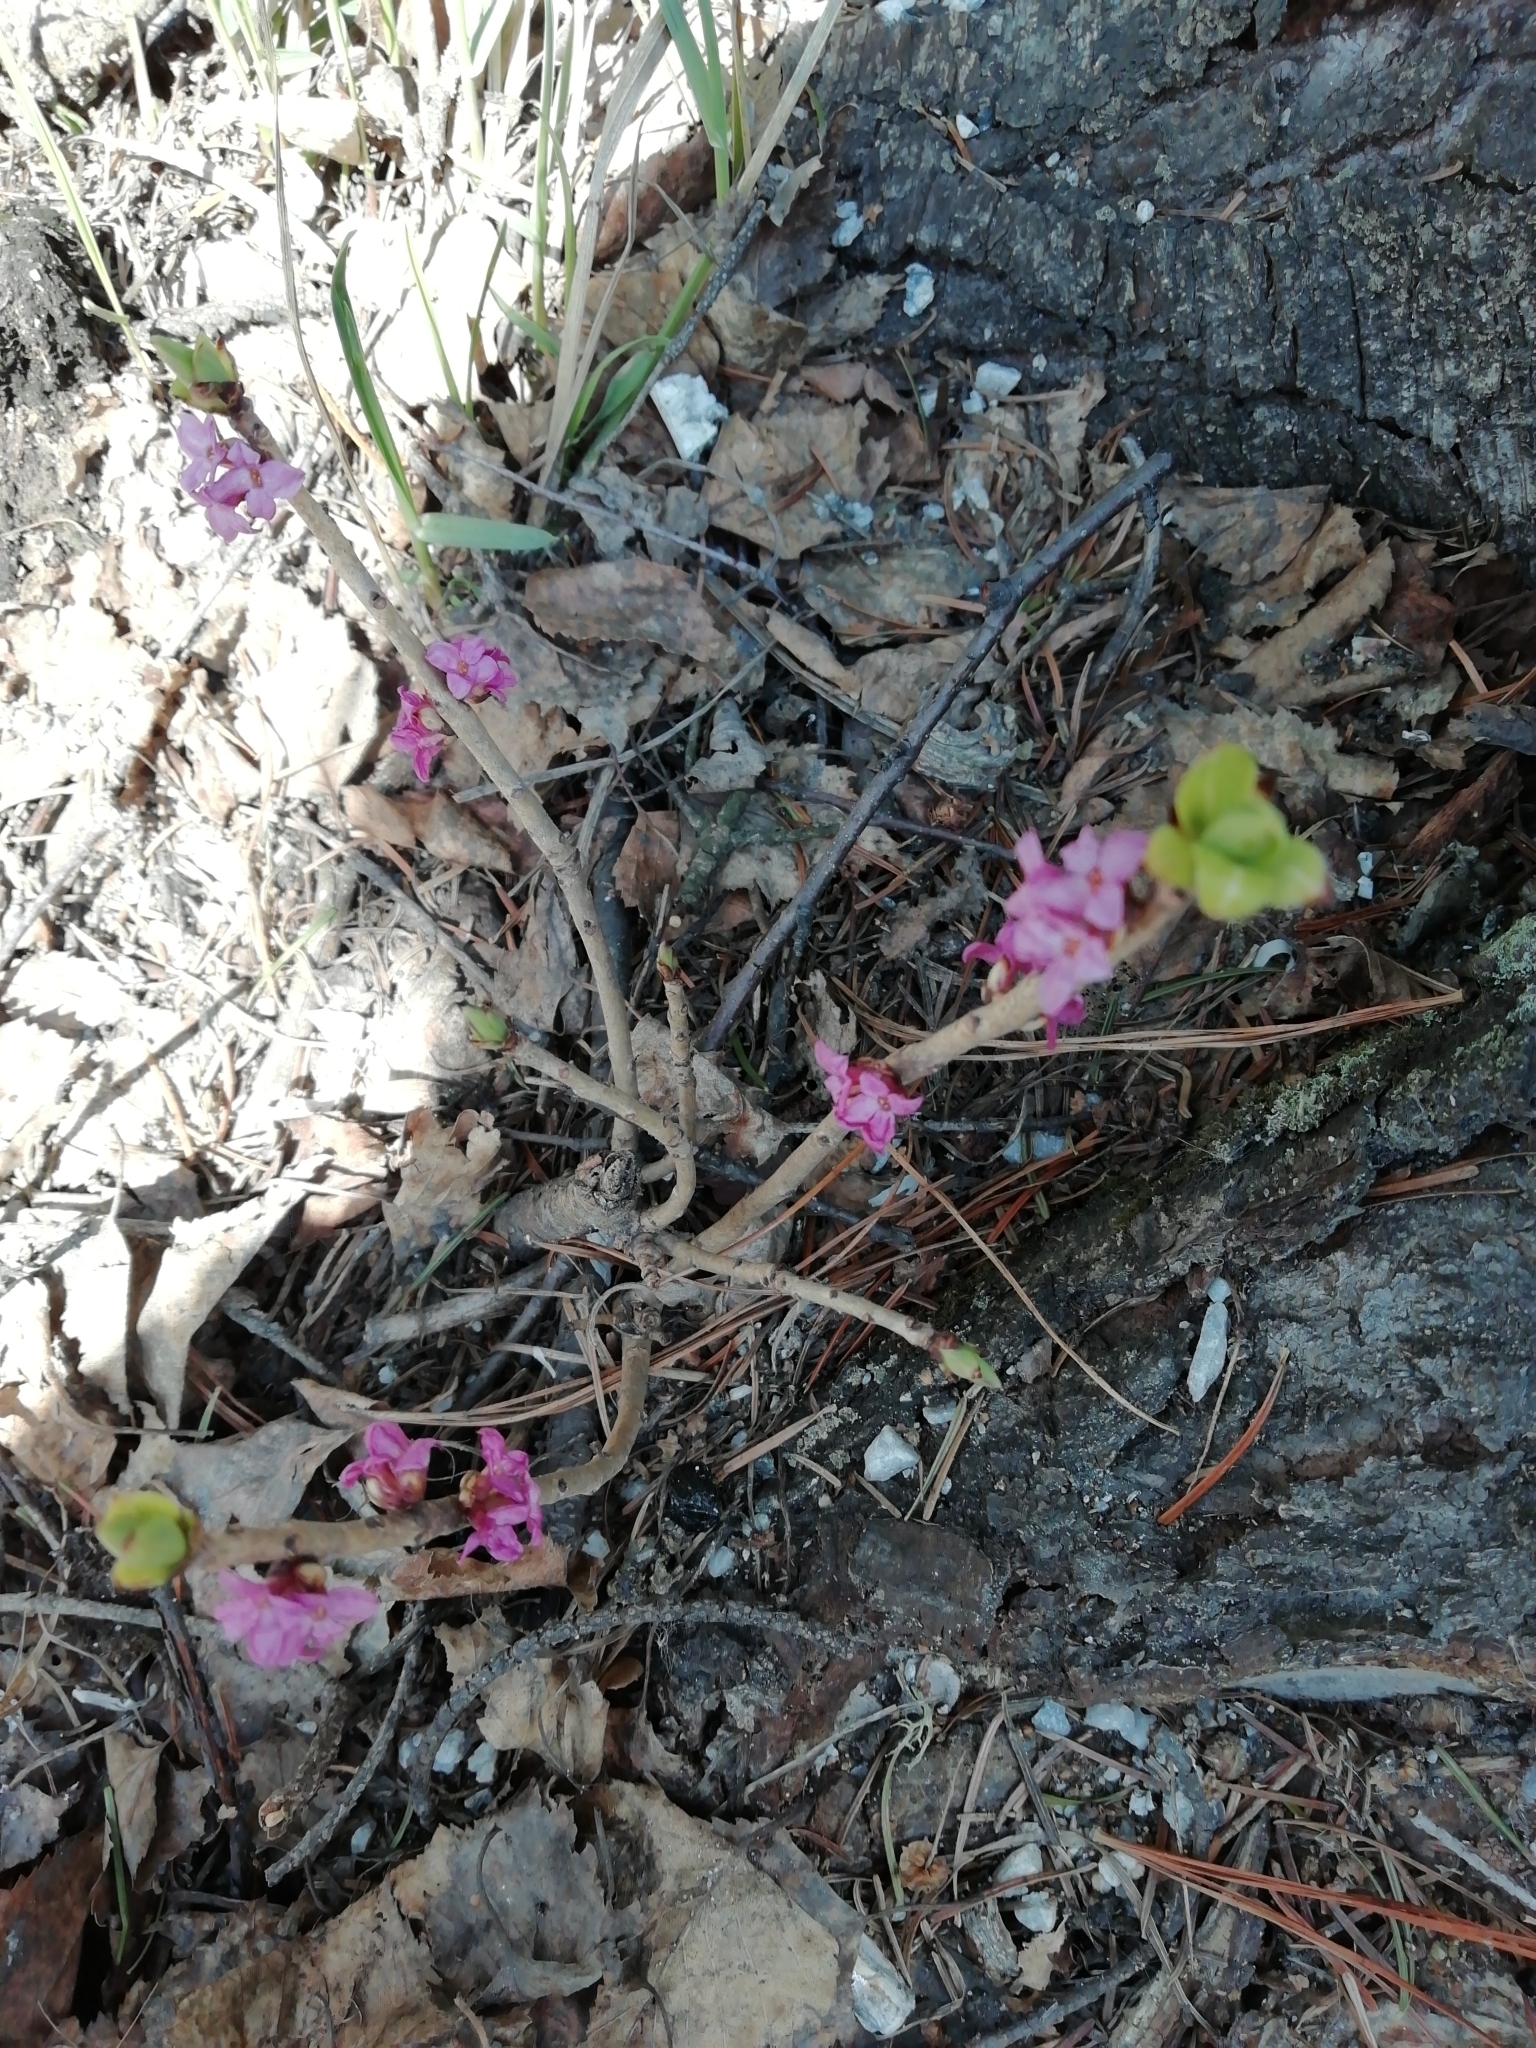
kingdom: Plantae
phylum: Tracheophyta
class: Magnoliopsida
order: Malvales
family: Thymelaeaceae
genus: Daphne
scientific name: Daphne mezereum
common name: Mezereon
